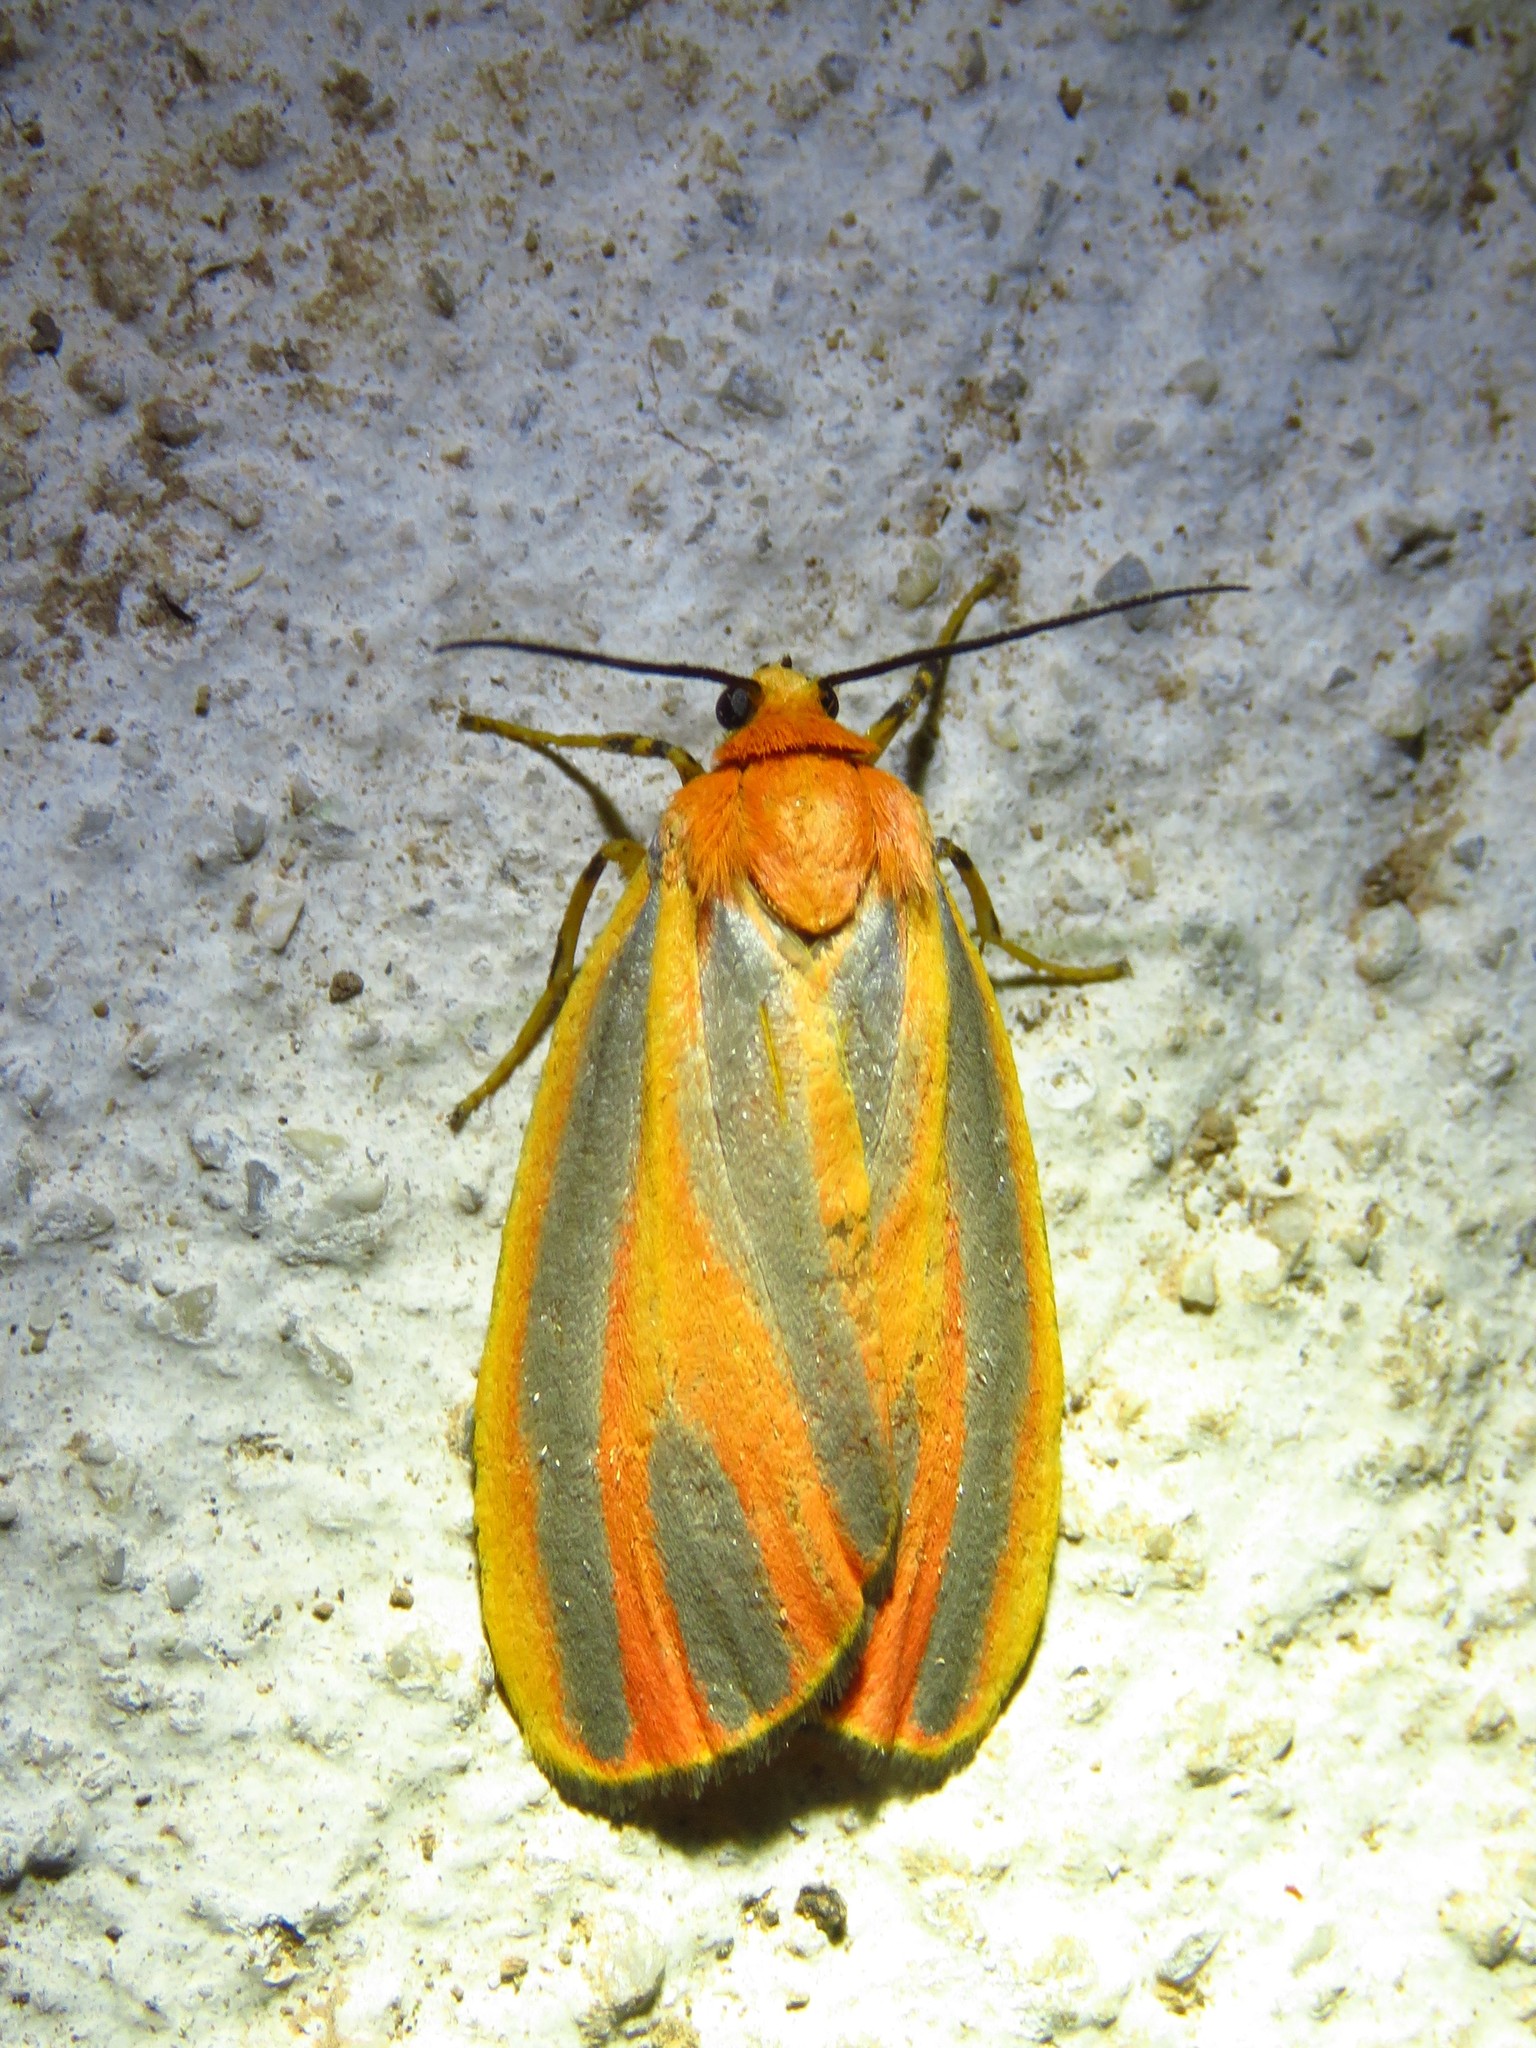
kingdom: Animalia
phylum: Arthropoda
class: Insecta
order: Lepidoptera
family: Erebidae
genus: Hypoprepia
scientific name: Hypoprepia fucosa
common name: Painted lichen moth
